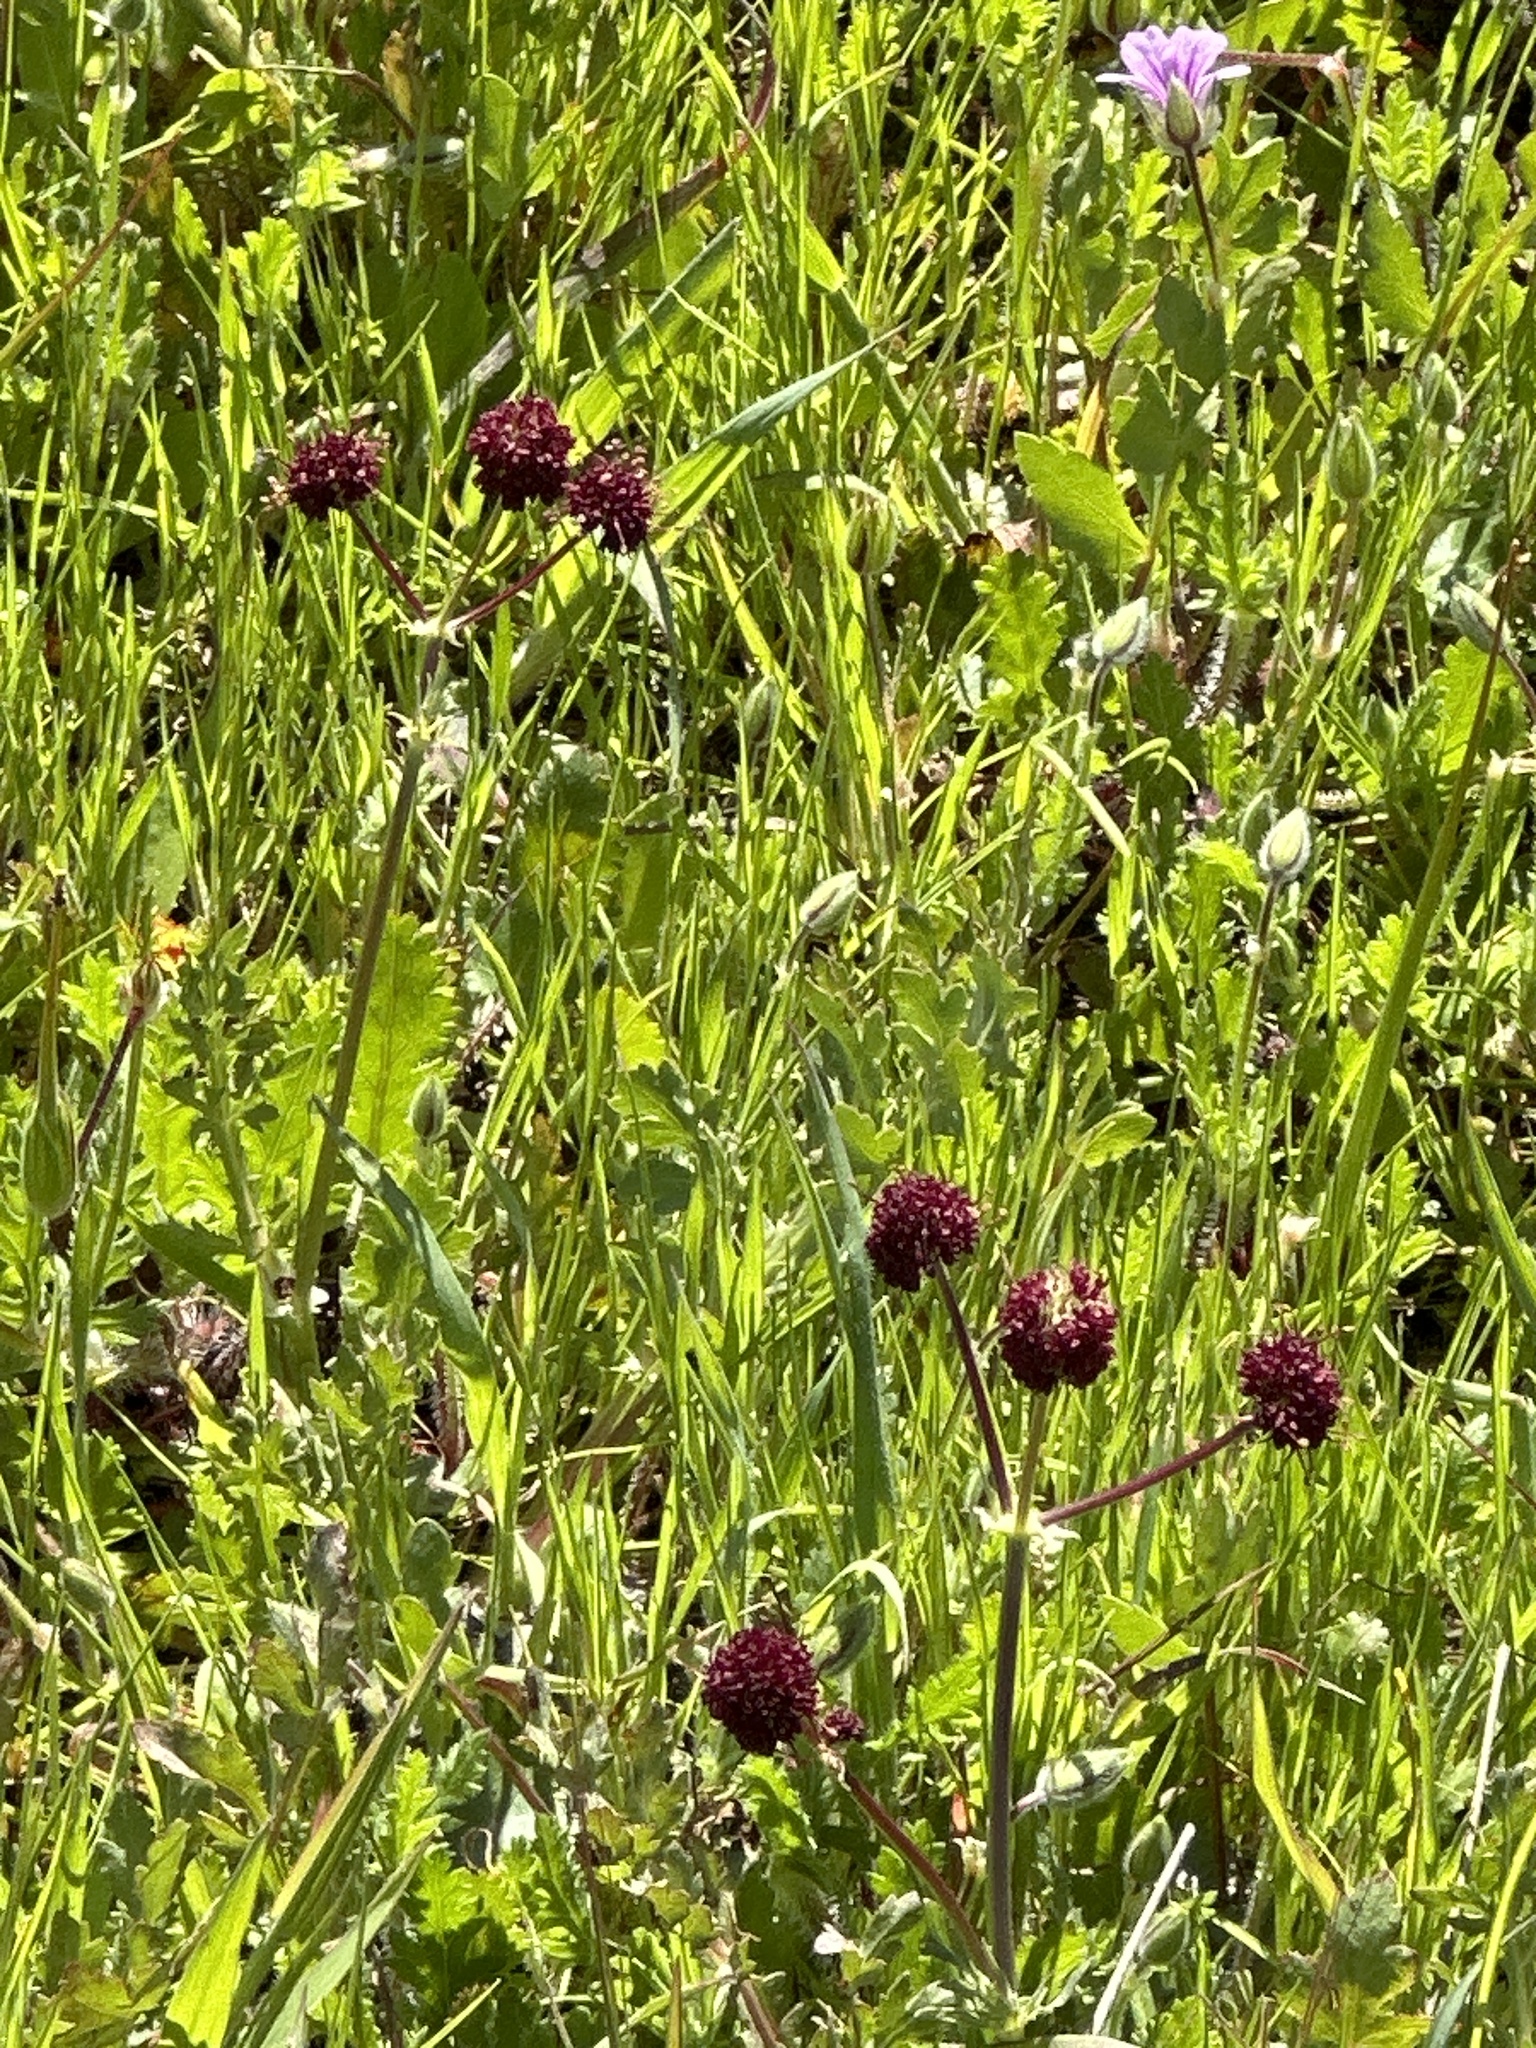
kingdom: Plantae
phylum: Tracheophyta
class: Magnoliopsida
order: Apiales
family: Apiaceae
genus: Sanicula
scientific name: Sanicula bipinnatifida
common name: Shoe-buttons
